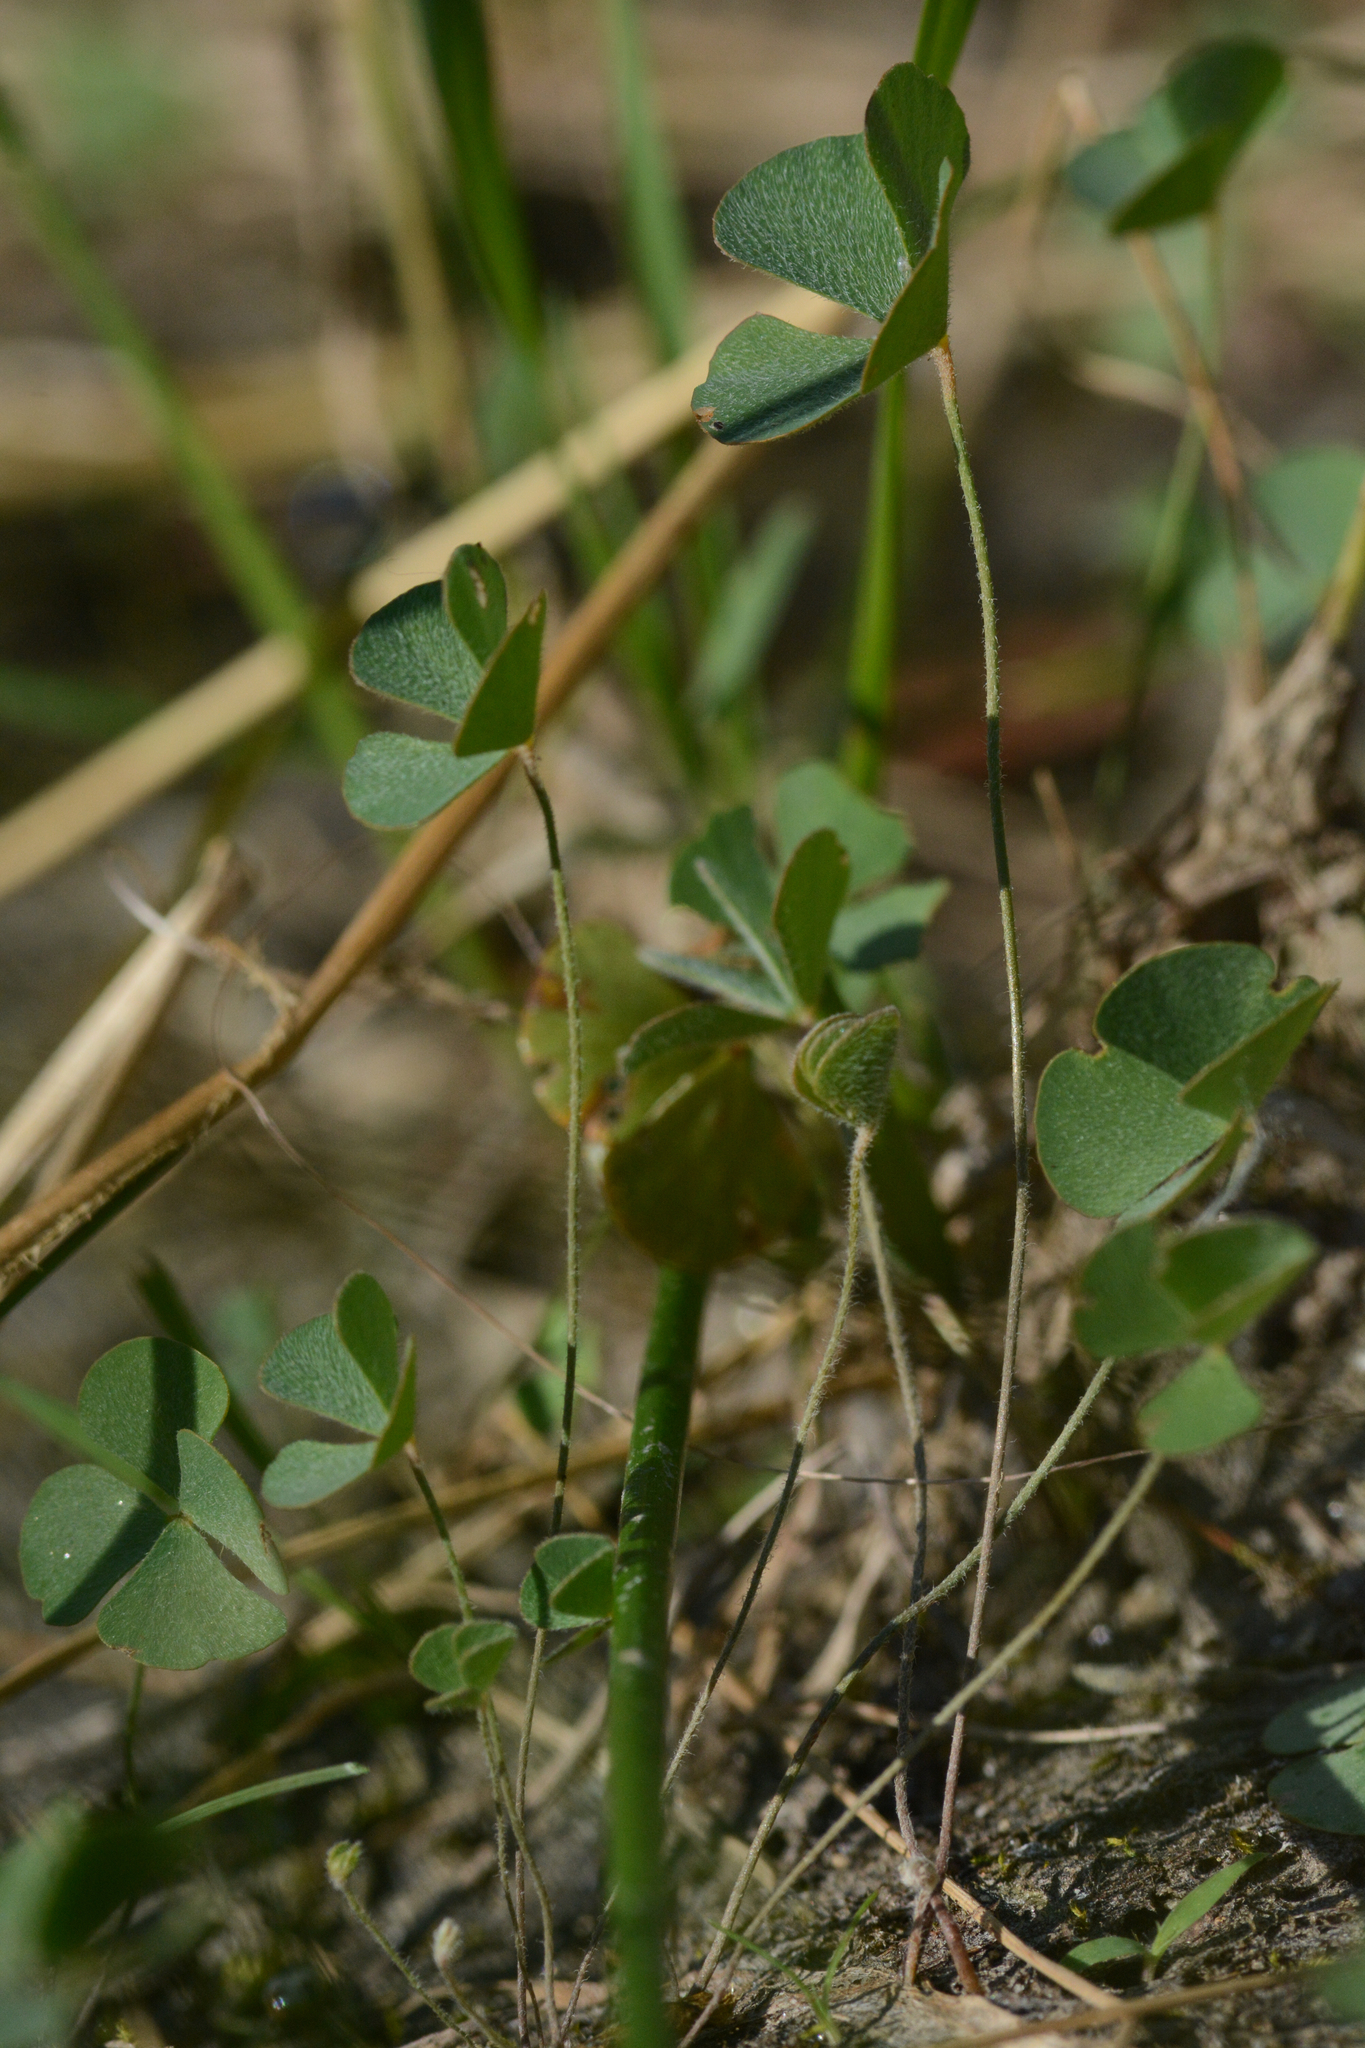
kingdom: Plantae
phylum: Tracheophyta
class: Polypodiopsida
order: Salviniales
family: Marsileaceae
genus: Marsilea
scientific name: Marsilea vestita
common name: Hooked-pepperwort
